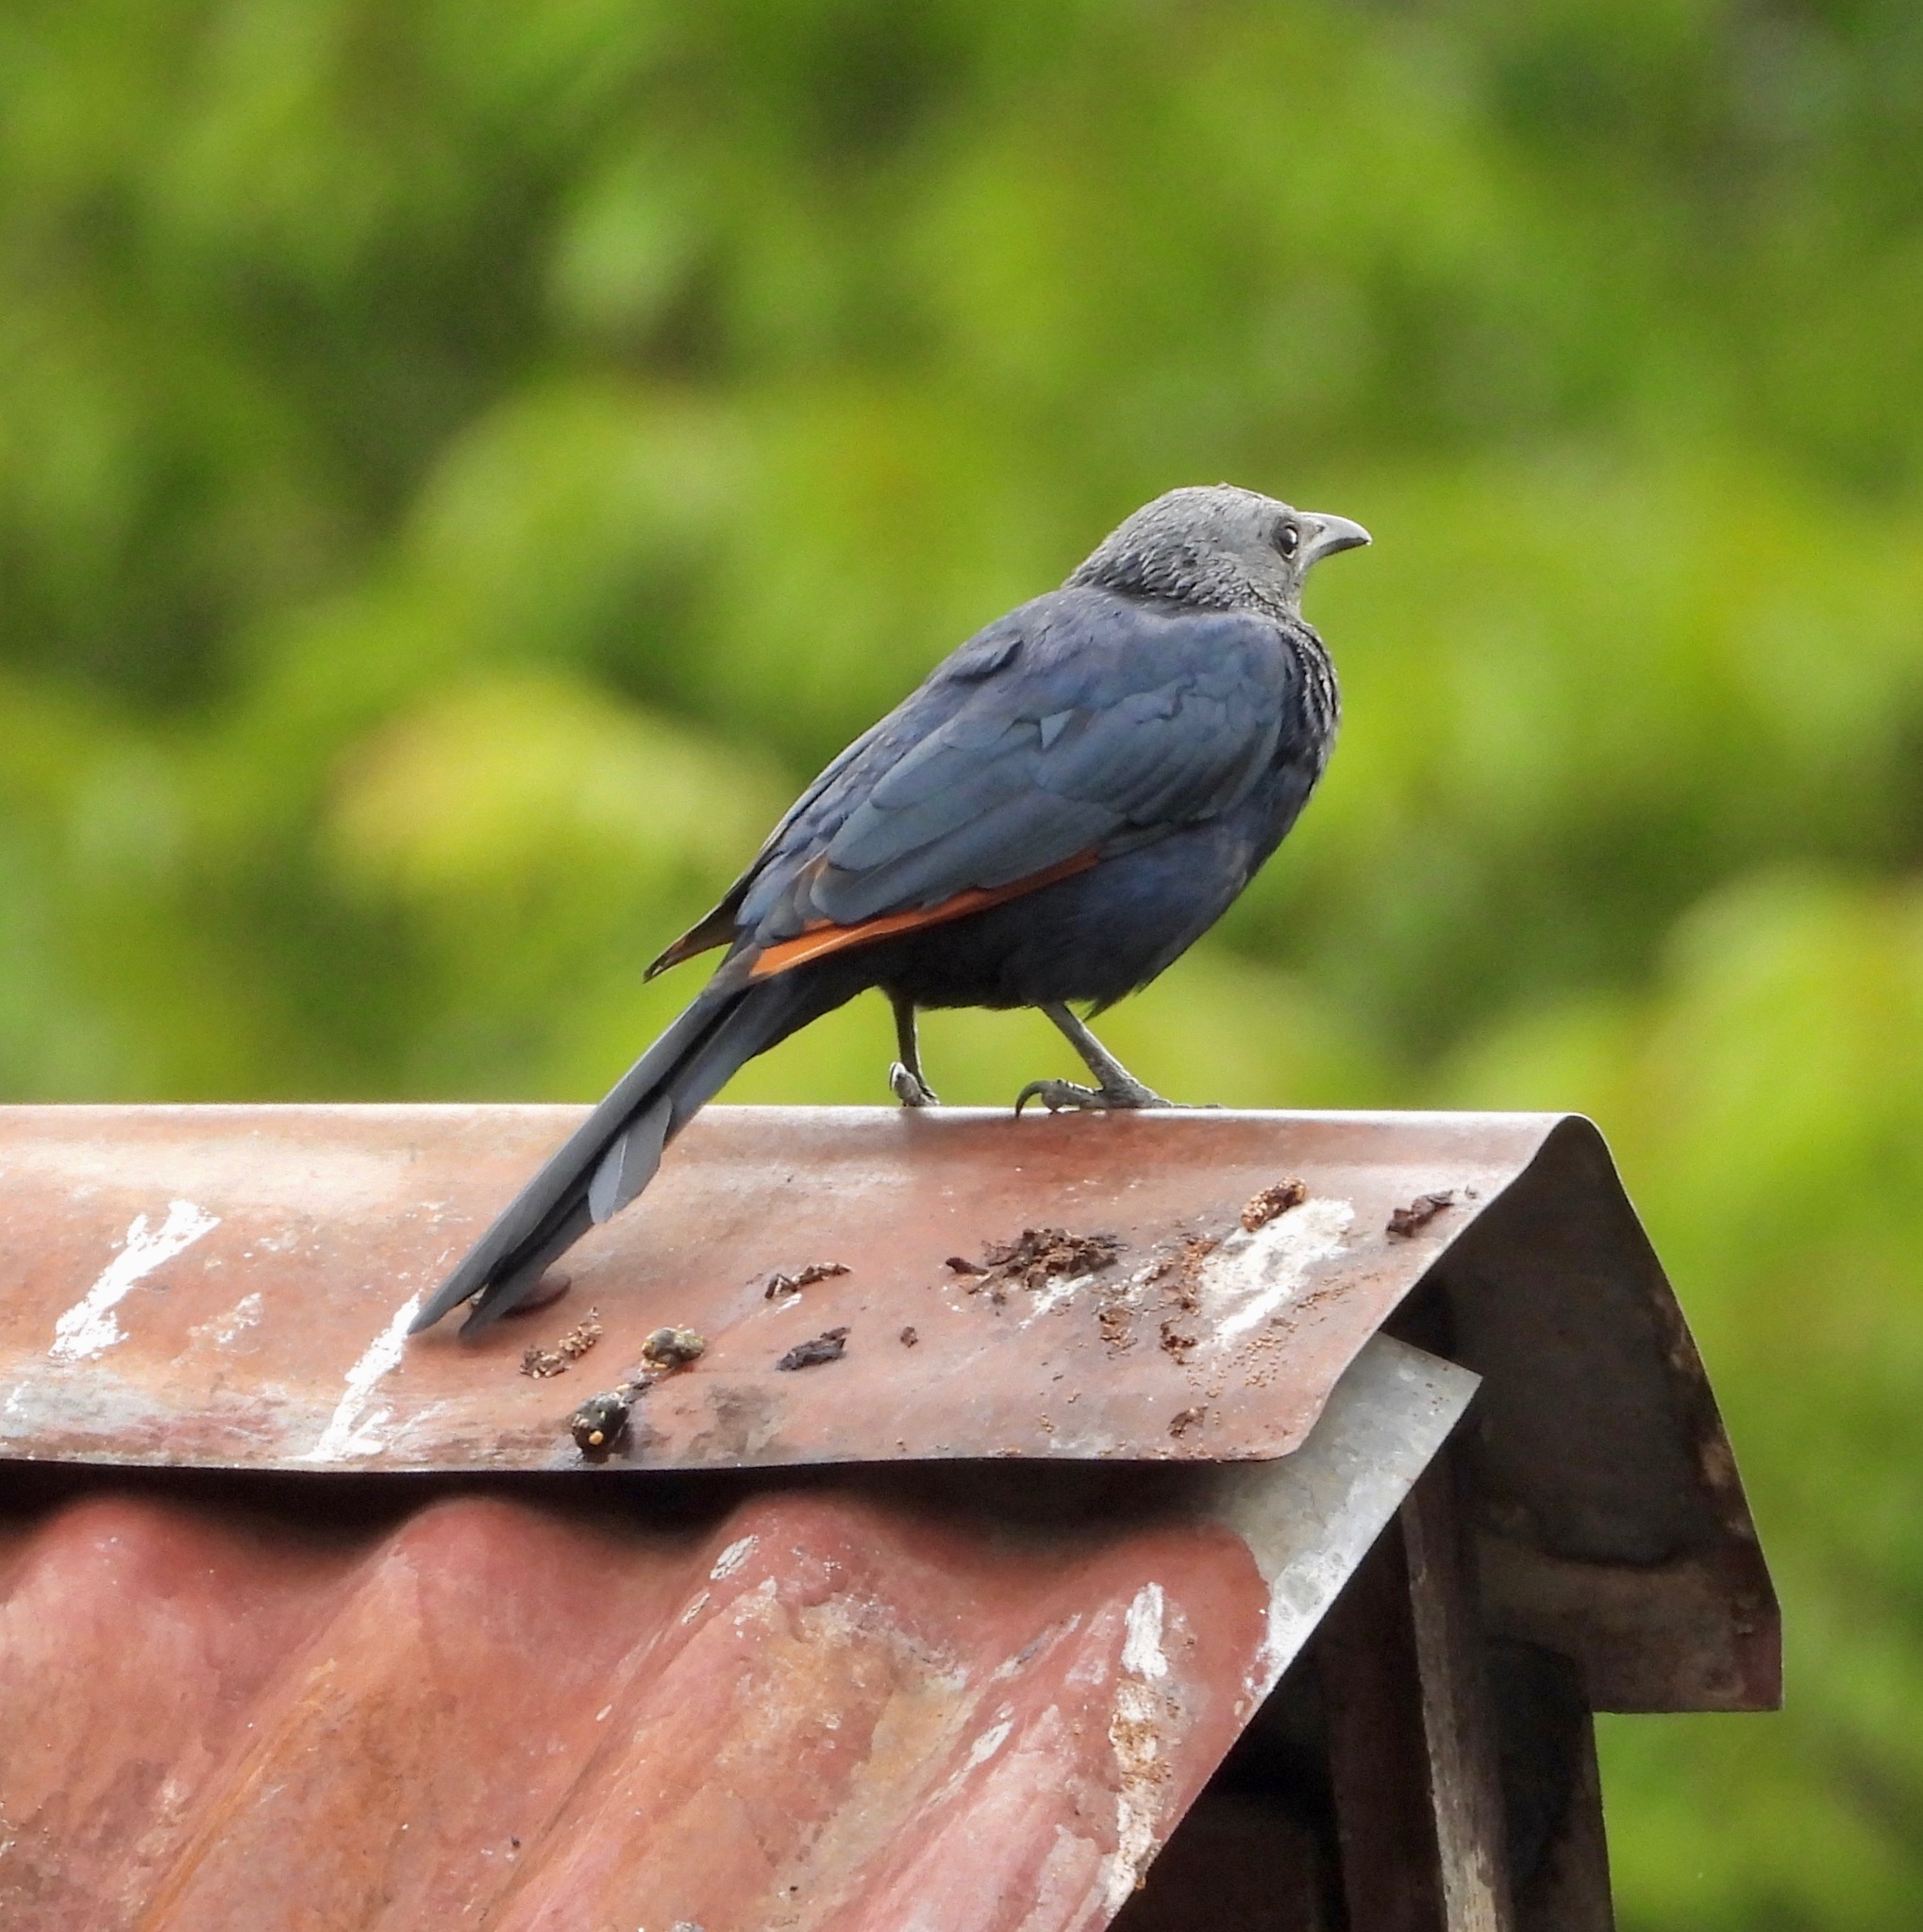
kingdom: Animalia
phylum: Chordata
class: Aves
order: Passeriformes
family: Sturnidae
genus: Onychognathus
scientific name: Onychognathus morio
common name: Red-winged starling
